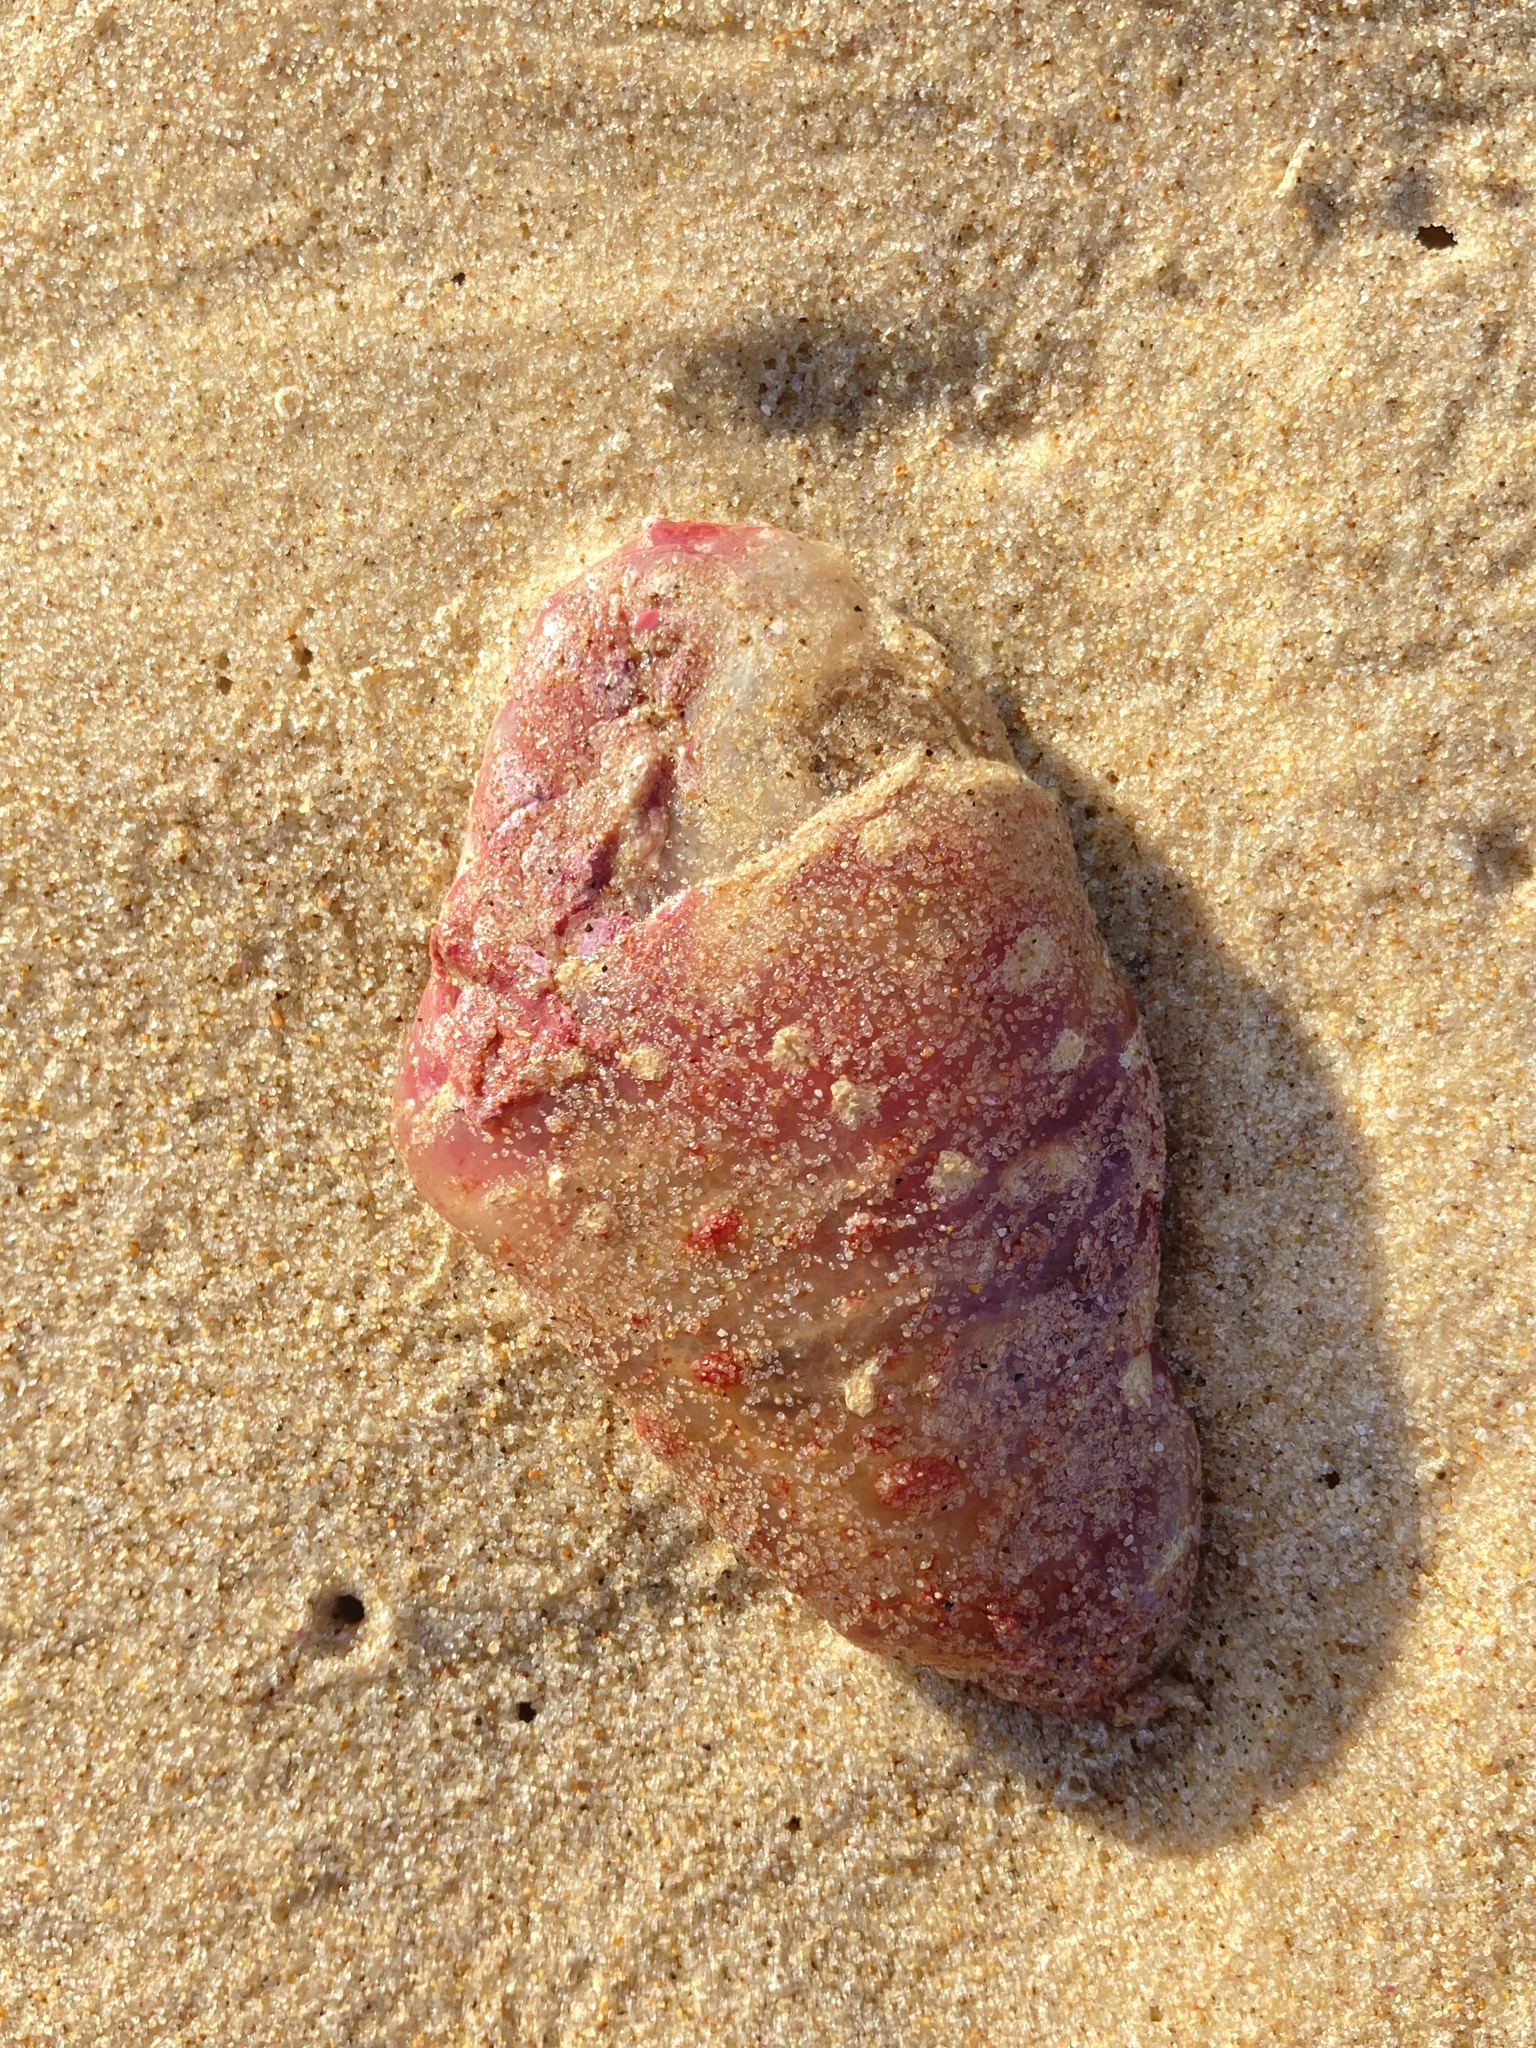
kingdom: Animalia
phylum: Mollusca
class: Gastropoda
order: Nudibranchia
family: Polyceridae
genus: Kalinga
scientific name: Kalinga ornata
